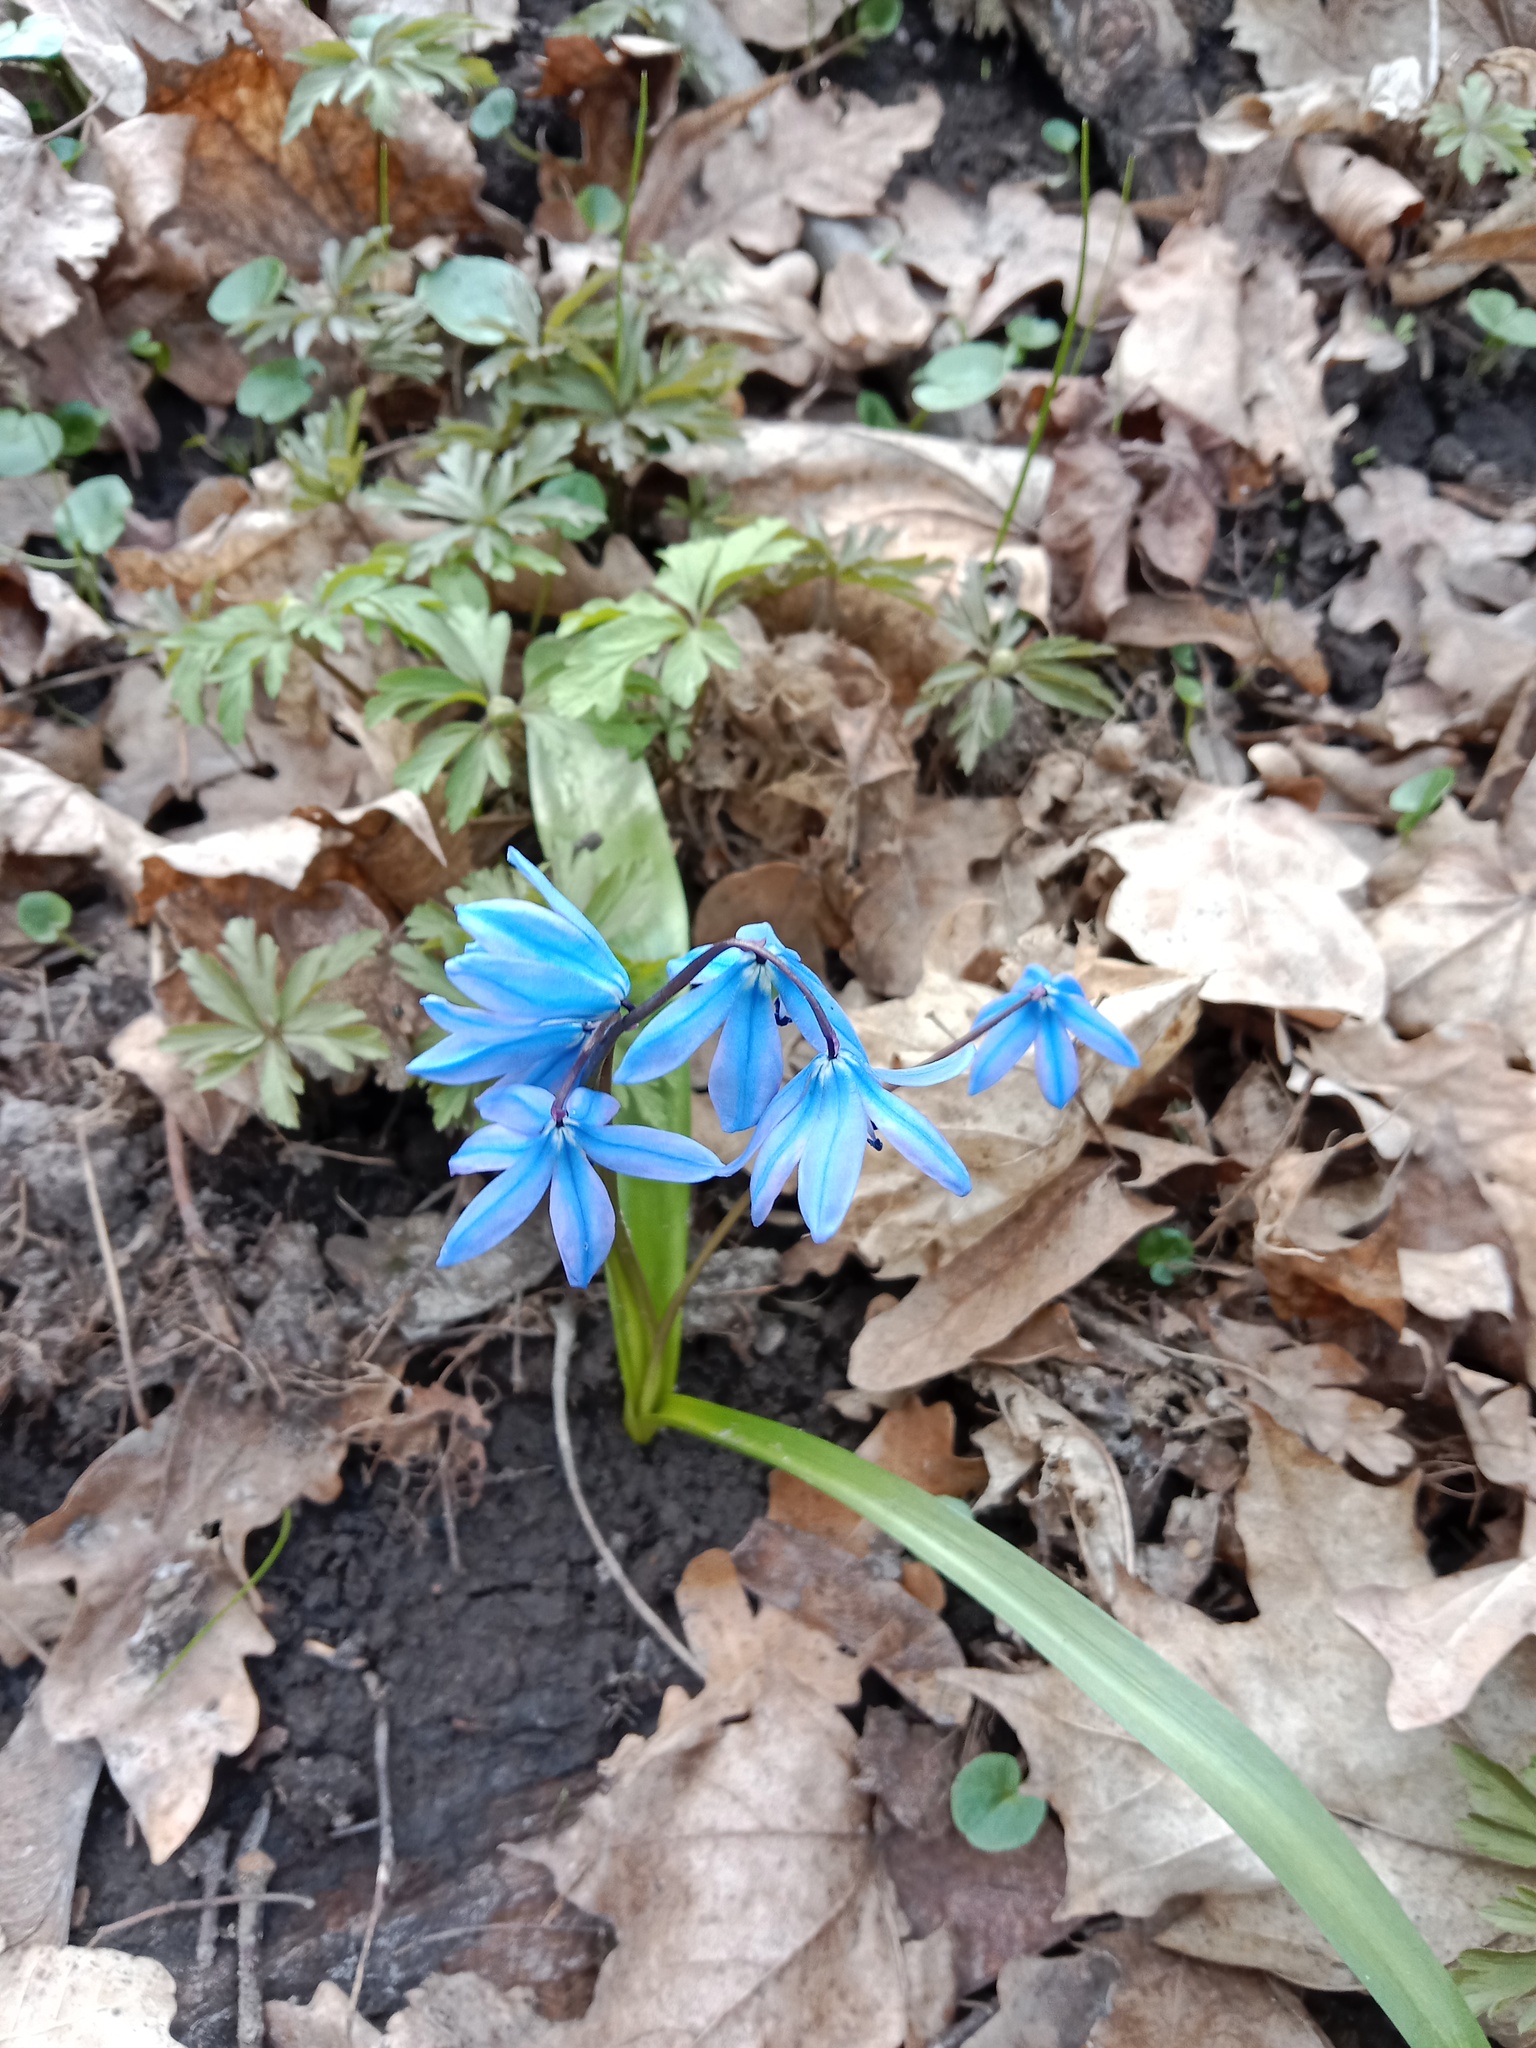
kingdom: Plantae
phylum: Tracheophyta
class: Liliopsida
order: Asparagales
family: Asparagaceae
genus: Scilla
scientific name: Scilla siberica
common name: Siberian squill
